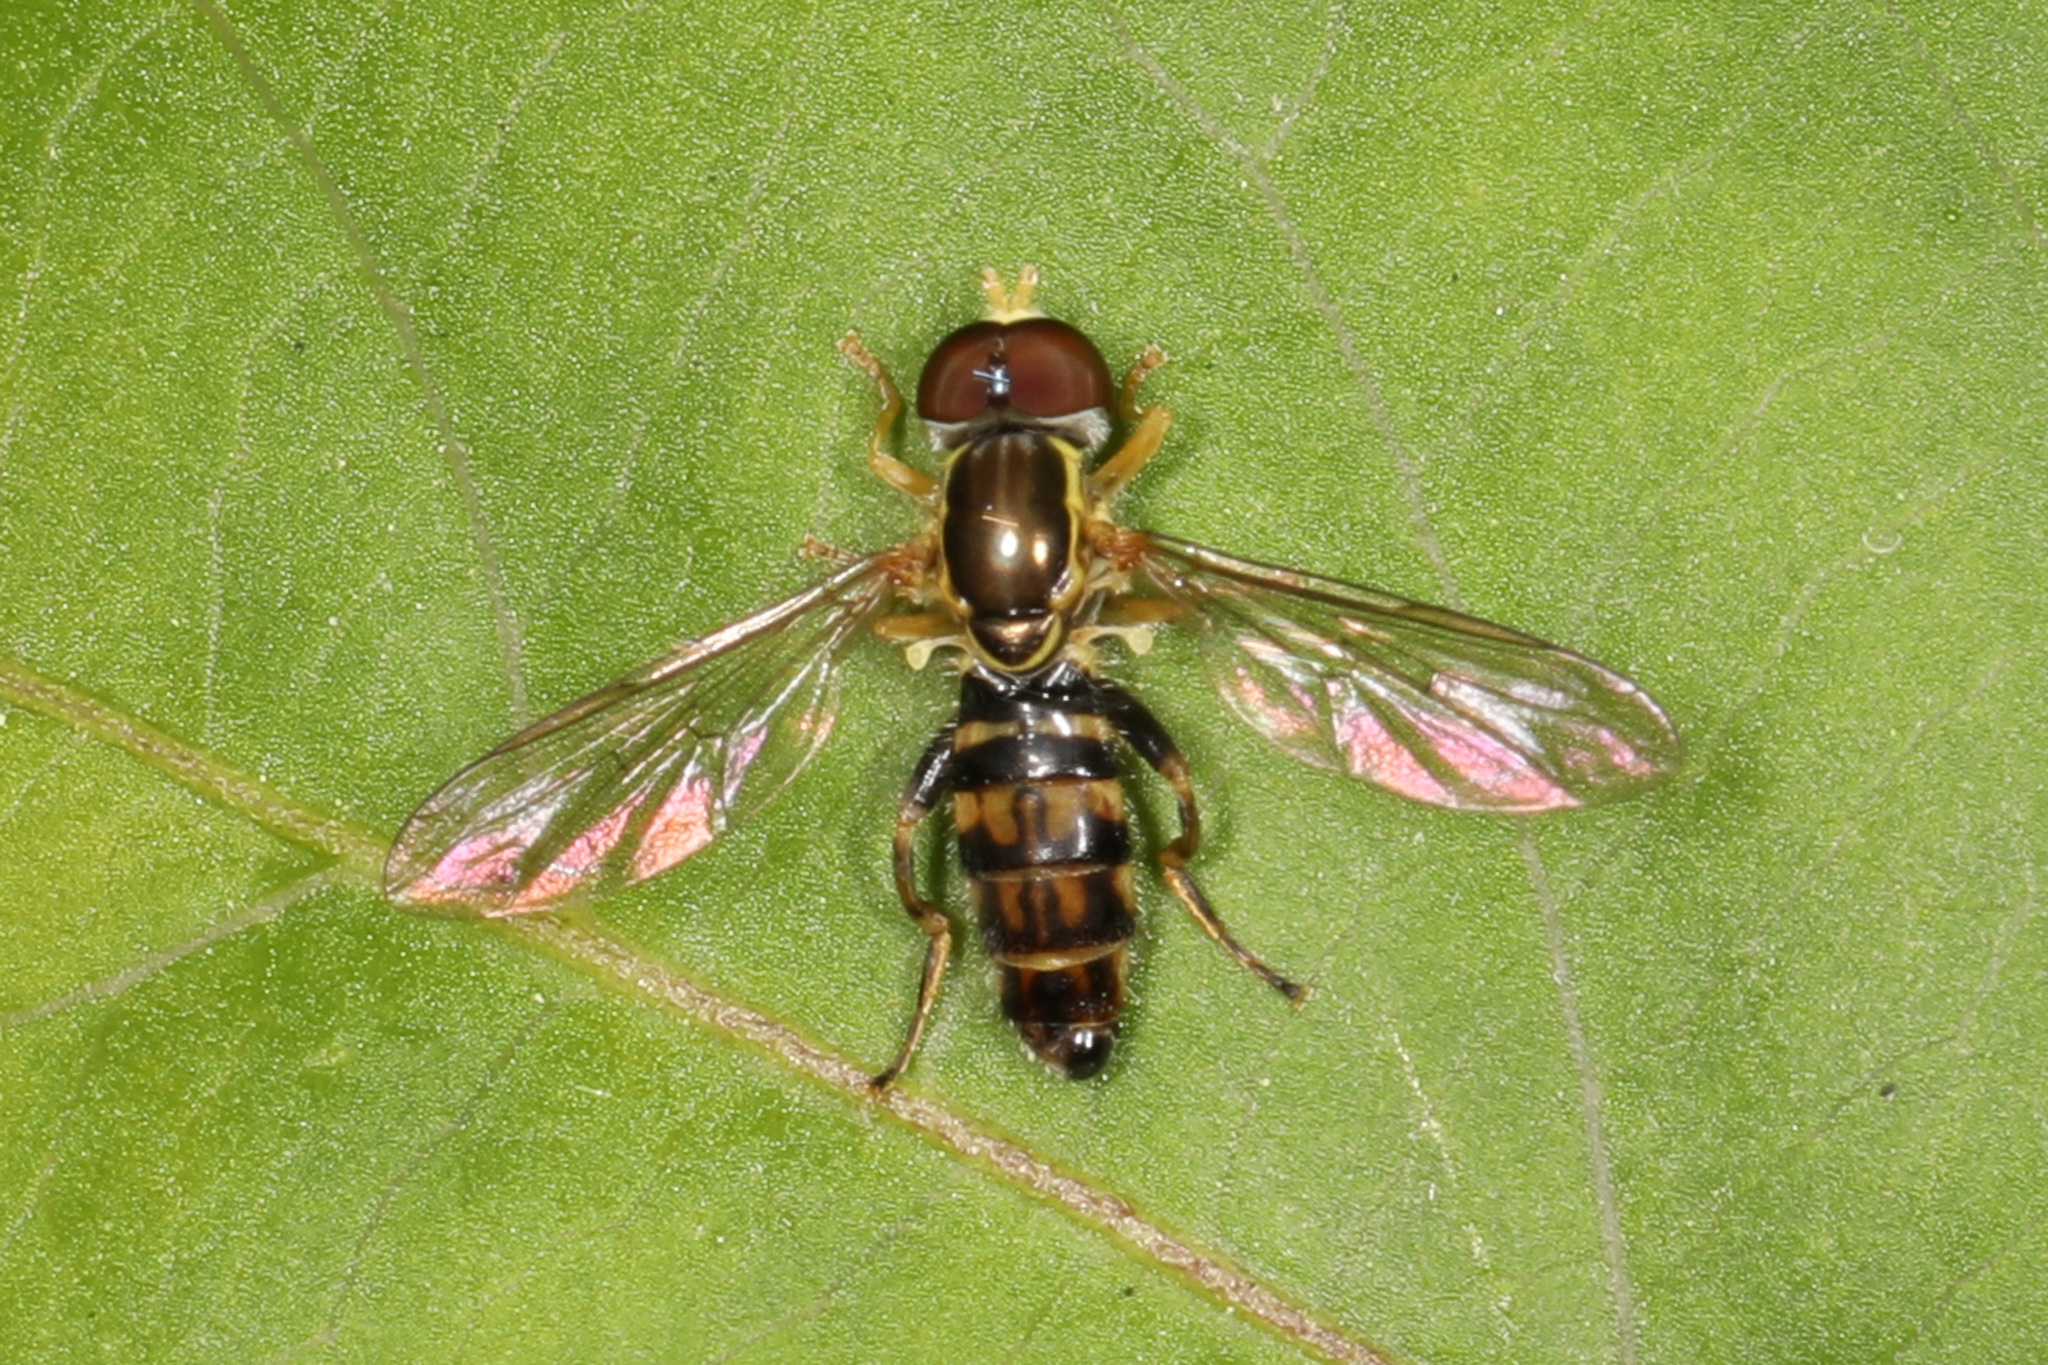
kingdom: Animalia
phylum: Arthropoda
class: Insecta
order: Diptera
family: Syrphidae
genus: Toxomerus
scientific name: Toxomerus geminatus
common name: Eastern calligrapher
